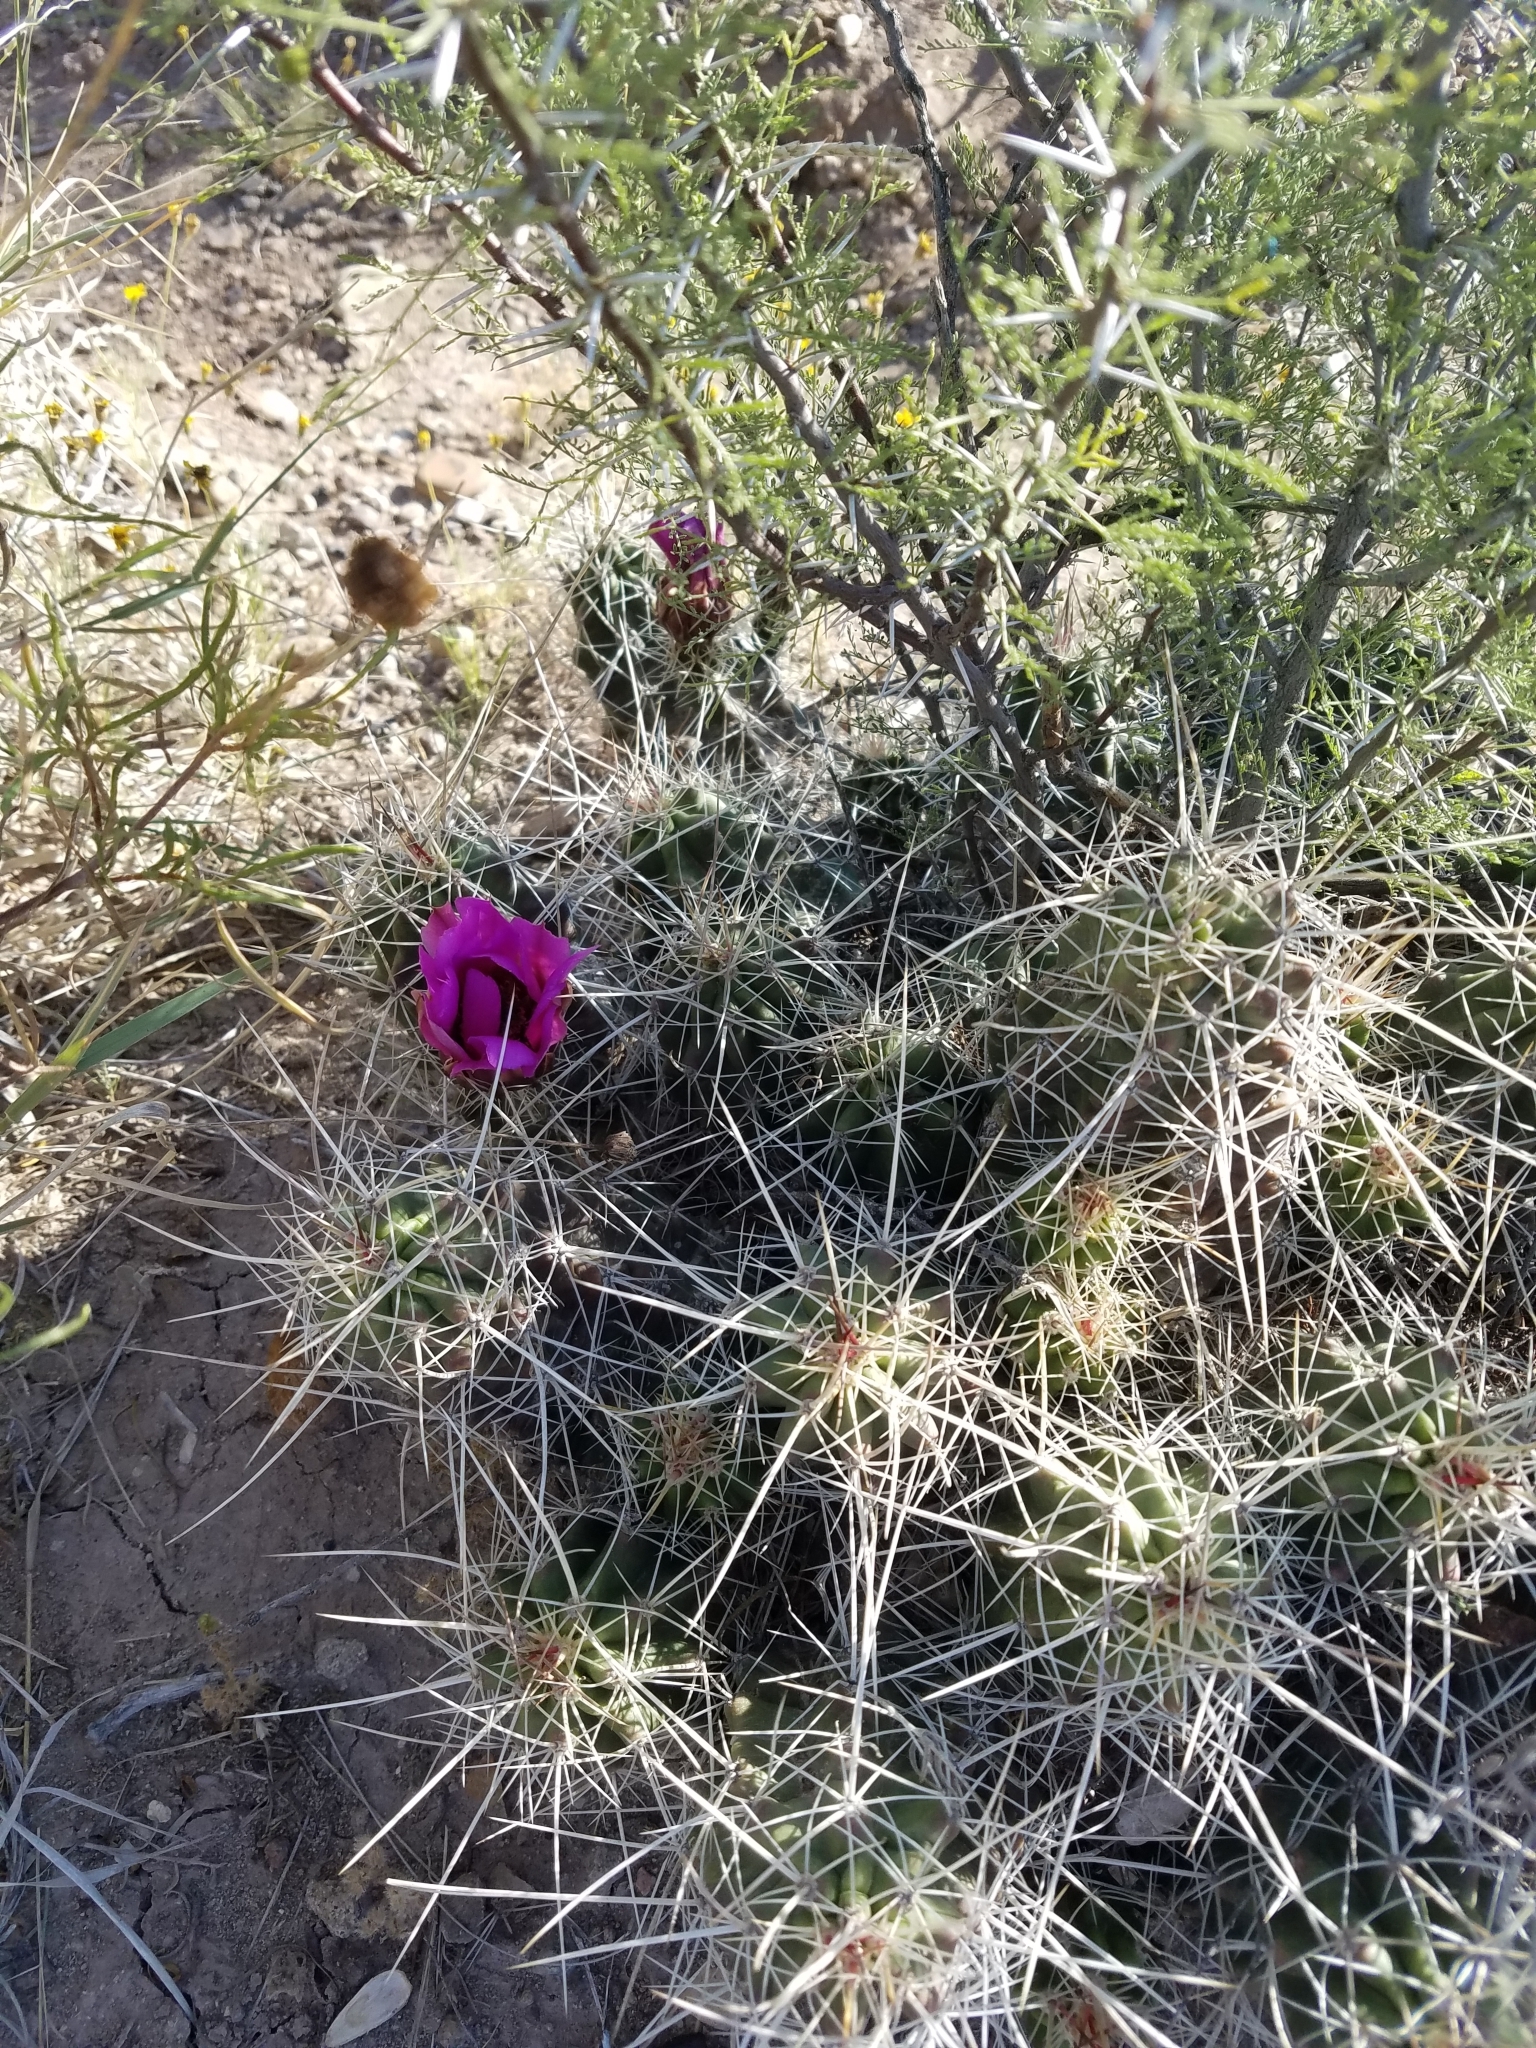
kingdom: Plantae
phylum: Tracheophyta
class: Magnoliopsida
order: Caryophyllales
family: Cactaceae
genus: Echinocereus
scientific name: Echinocereus enneacanthus
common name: Pitaya
